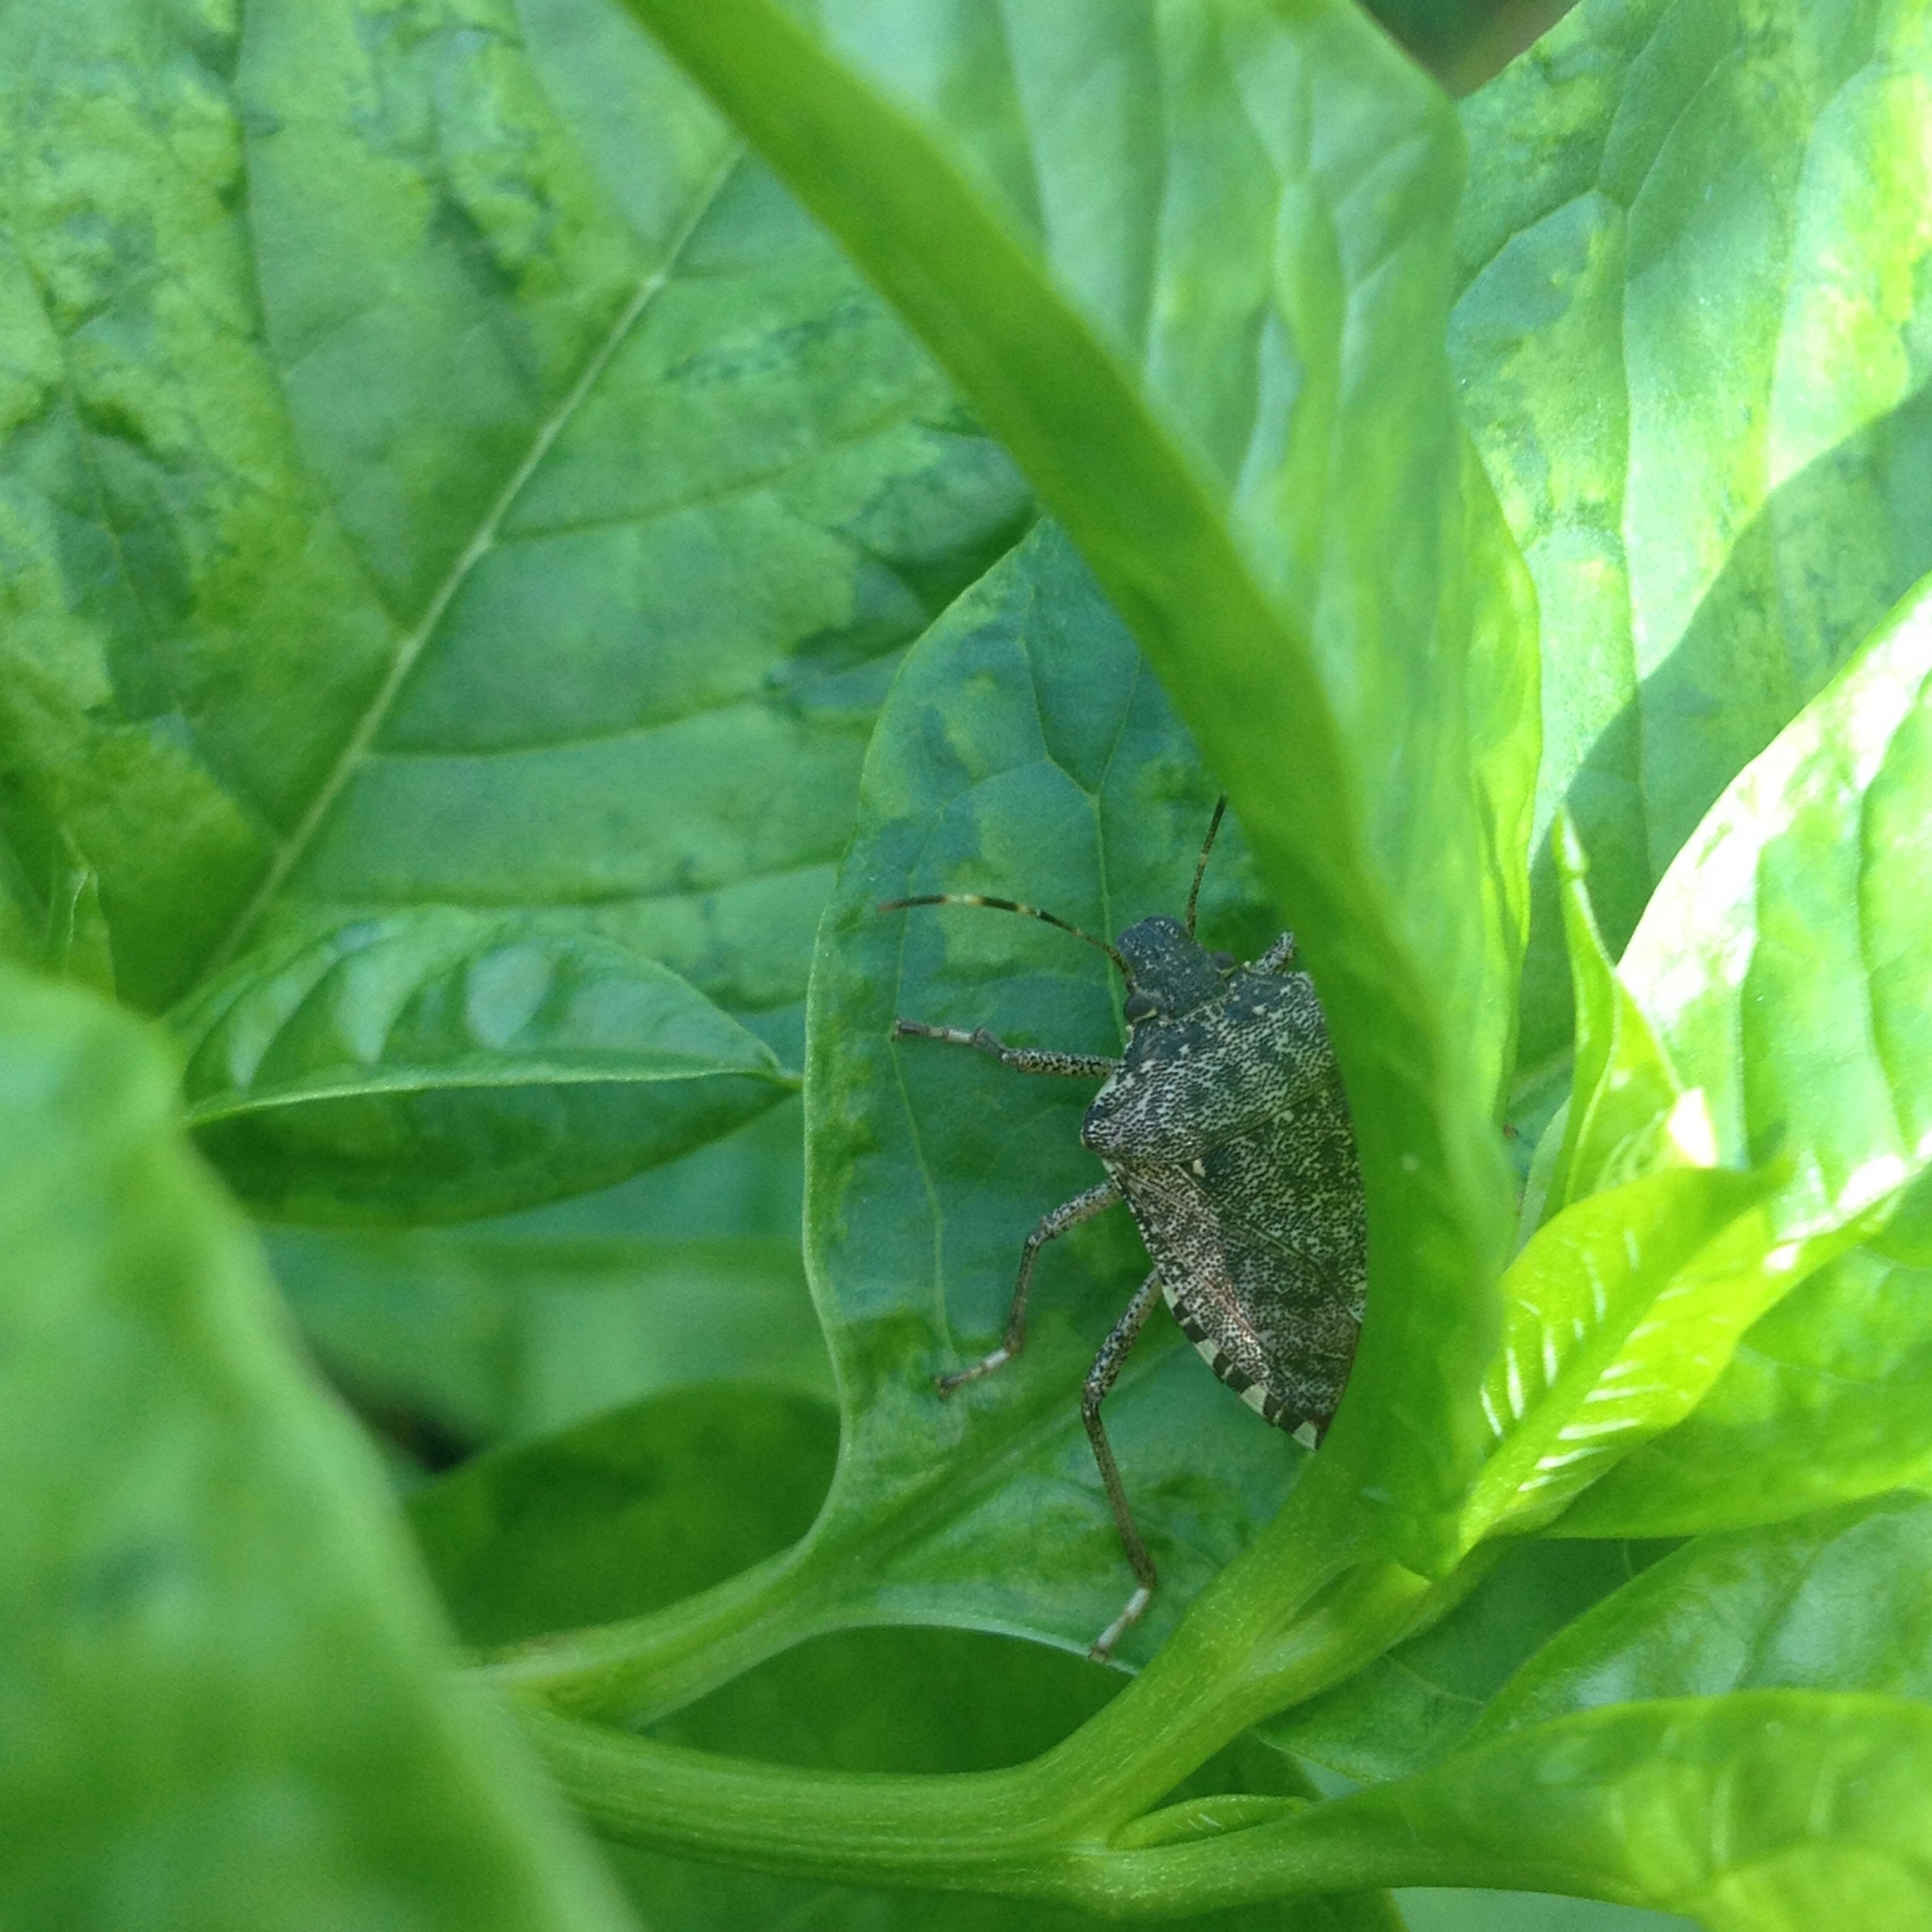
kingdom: Animalia
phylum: Arthropoda
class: Insecta
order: Hemiptera
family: Pentatomidae
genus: Halyomorpha
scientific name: Halyomorpha halys
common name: Brown marmorated stink bug
